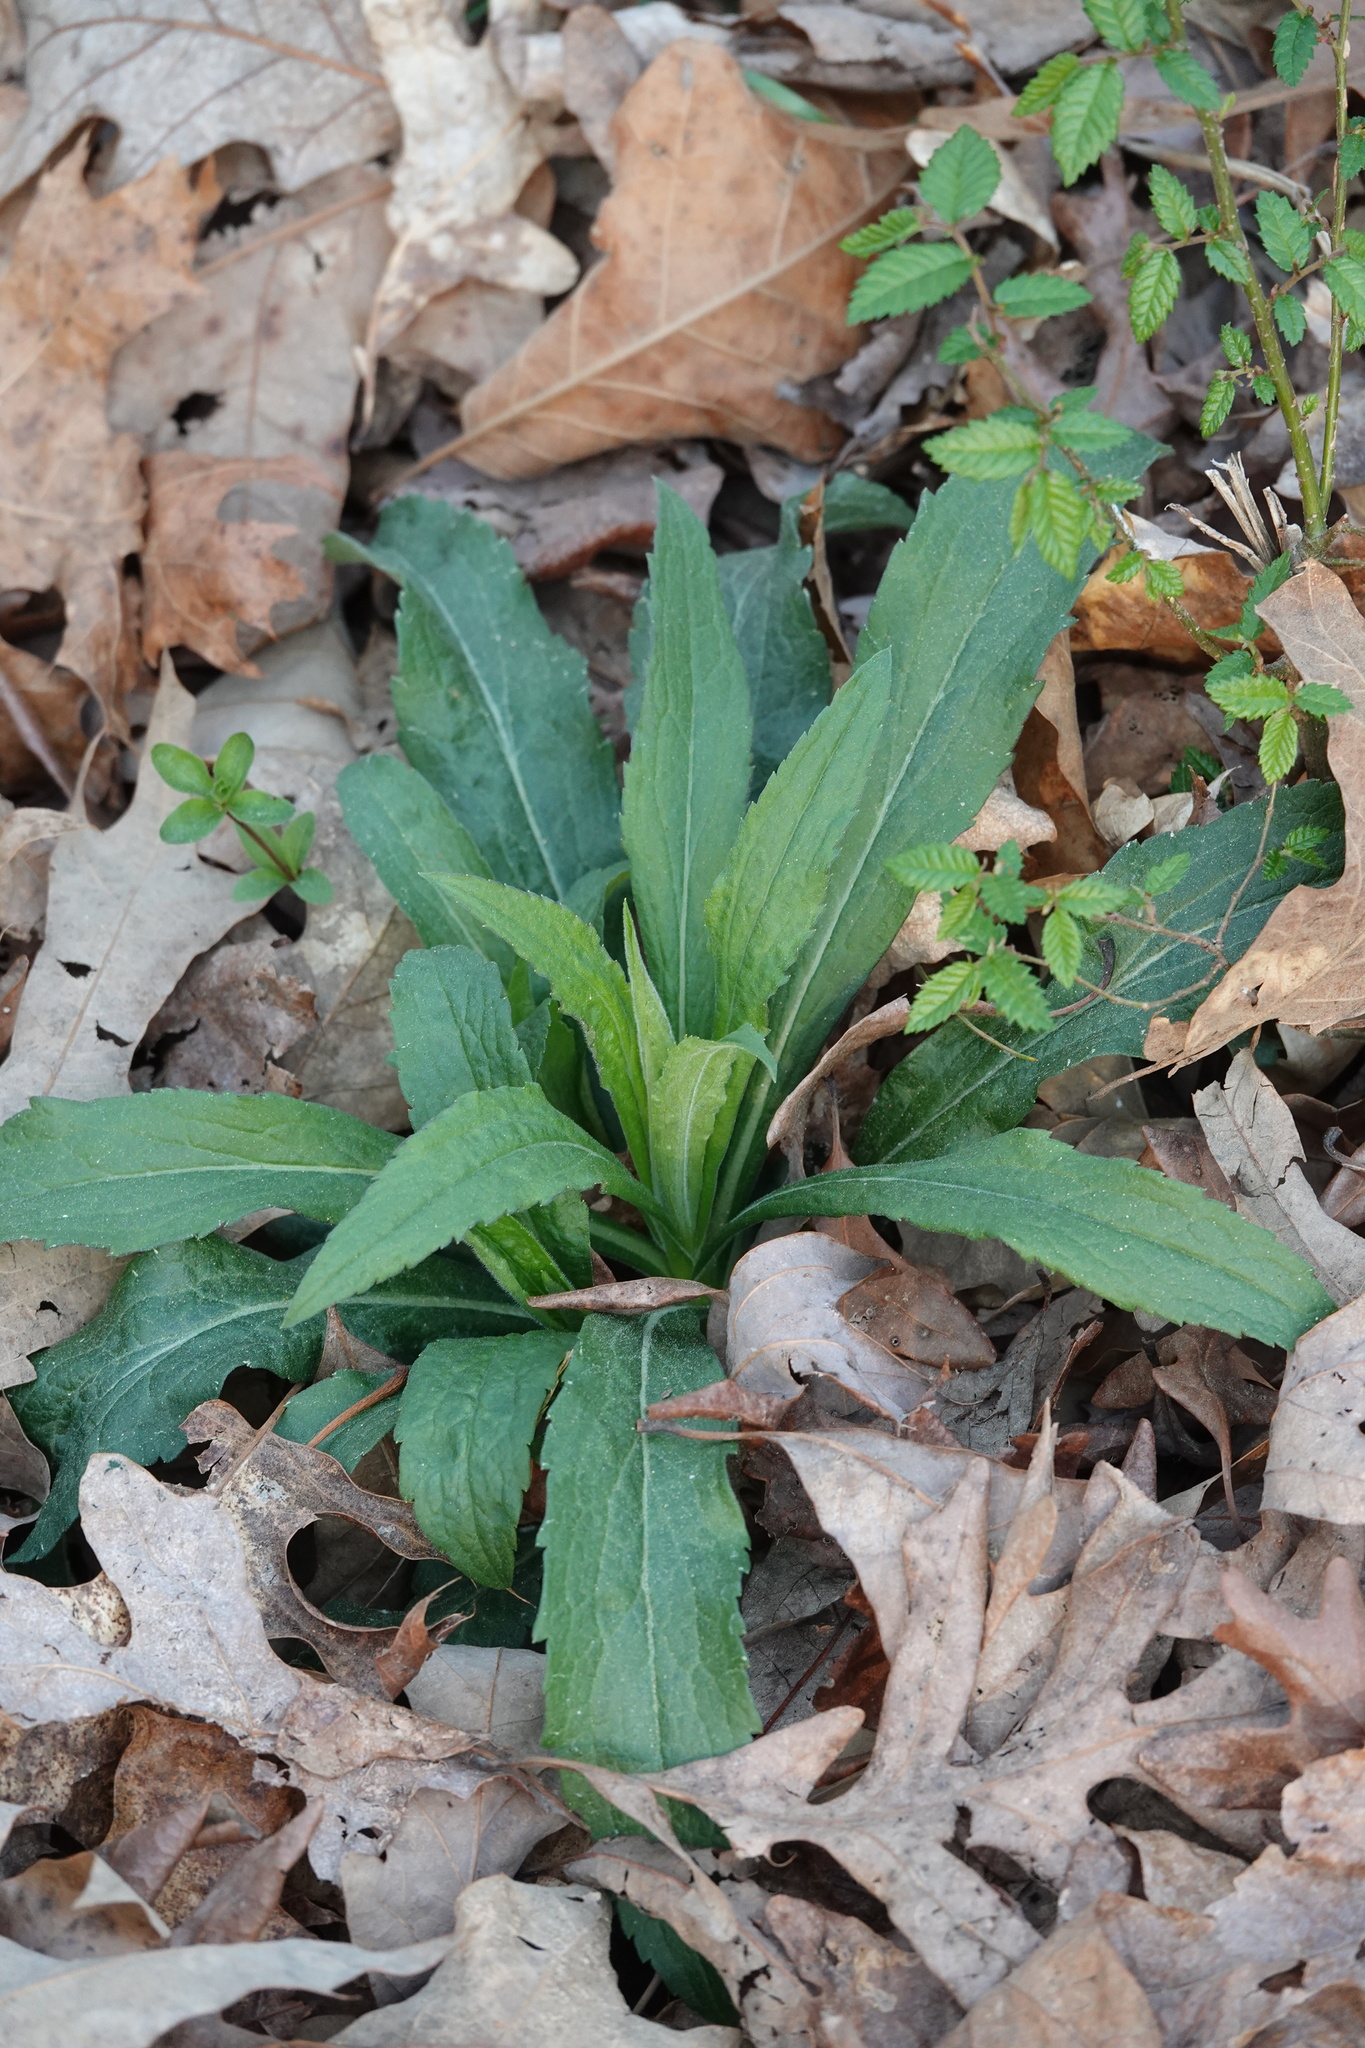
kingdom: Plantae
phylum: Tracheophyta
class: Magnoliopsida
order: Brassicales
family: Brassicaceae
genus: Hesperis
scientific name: Hesperis matronalis
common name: Dame's-violet
